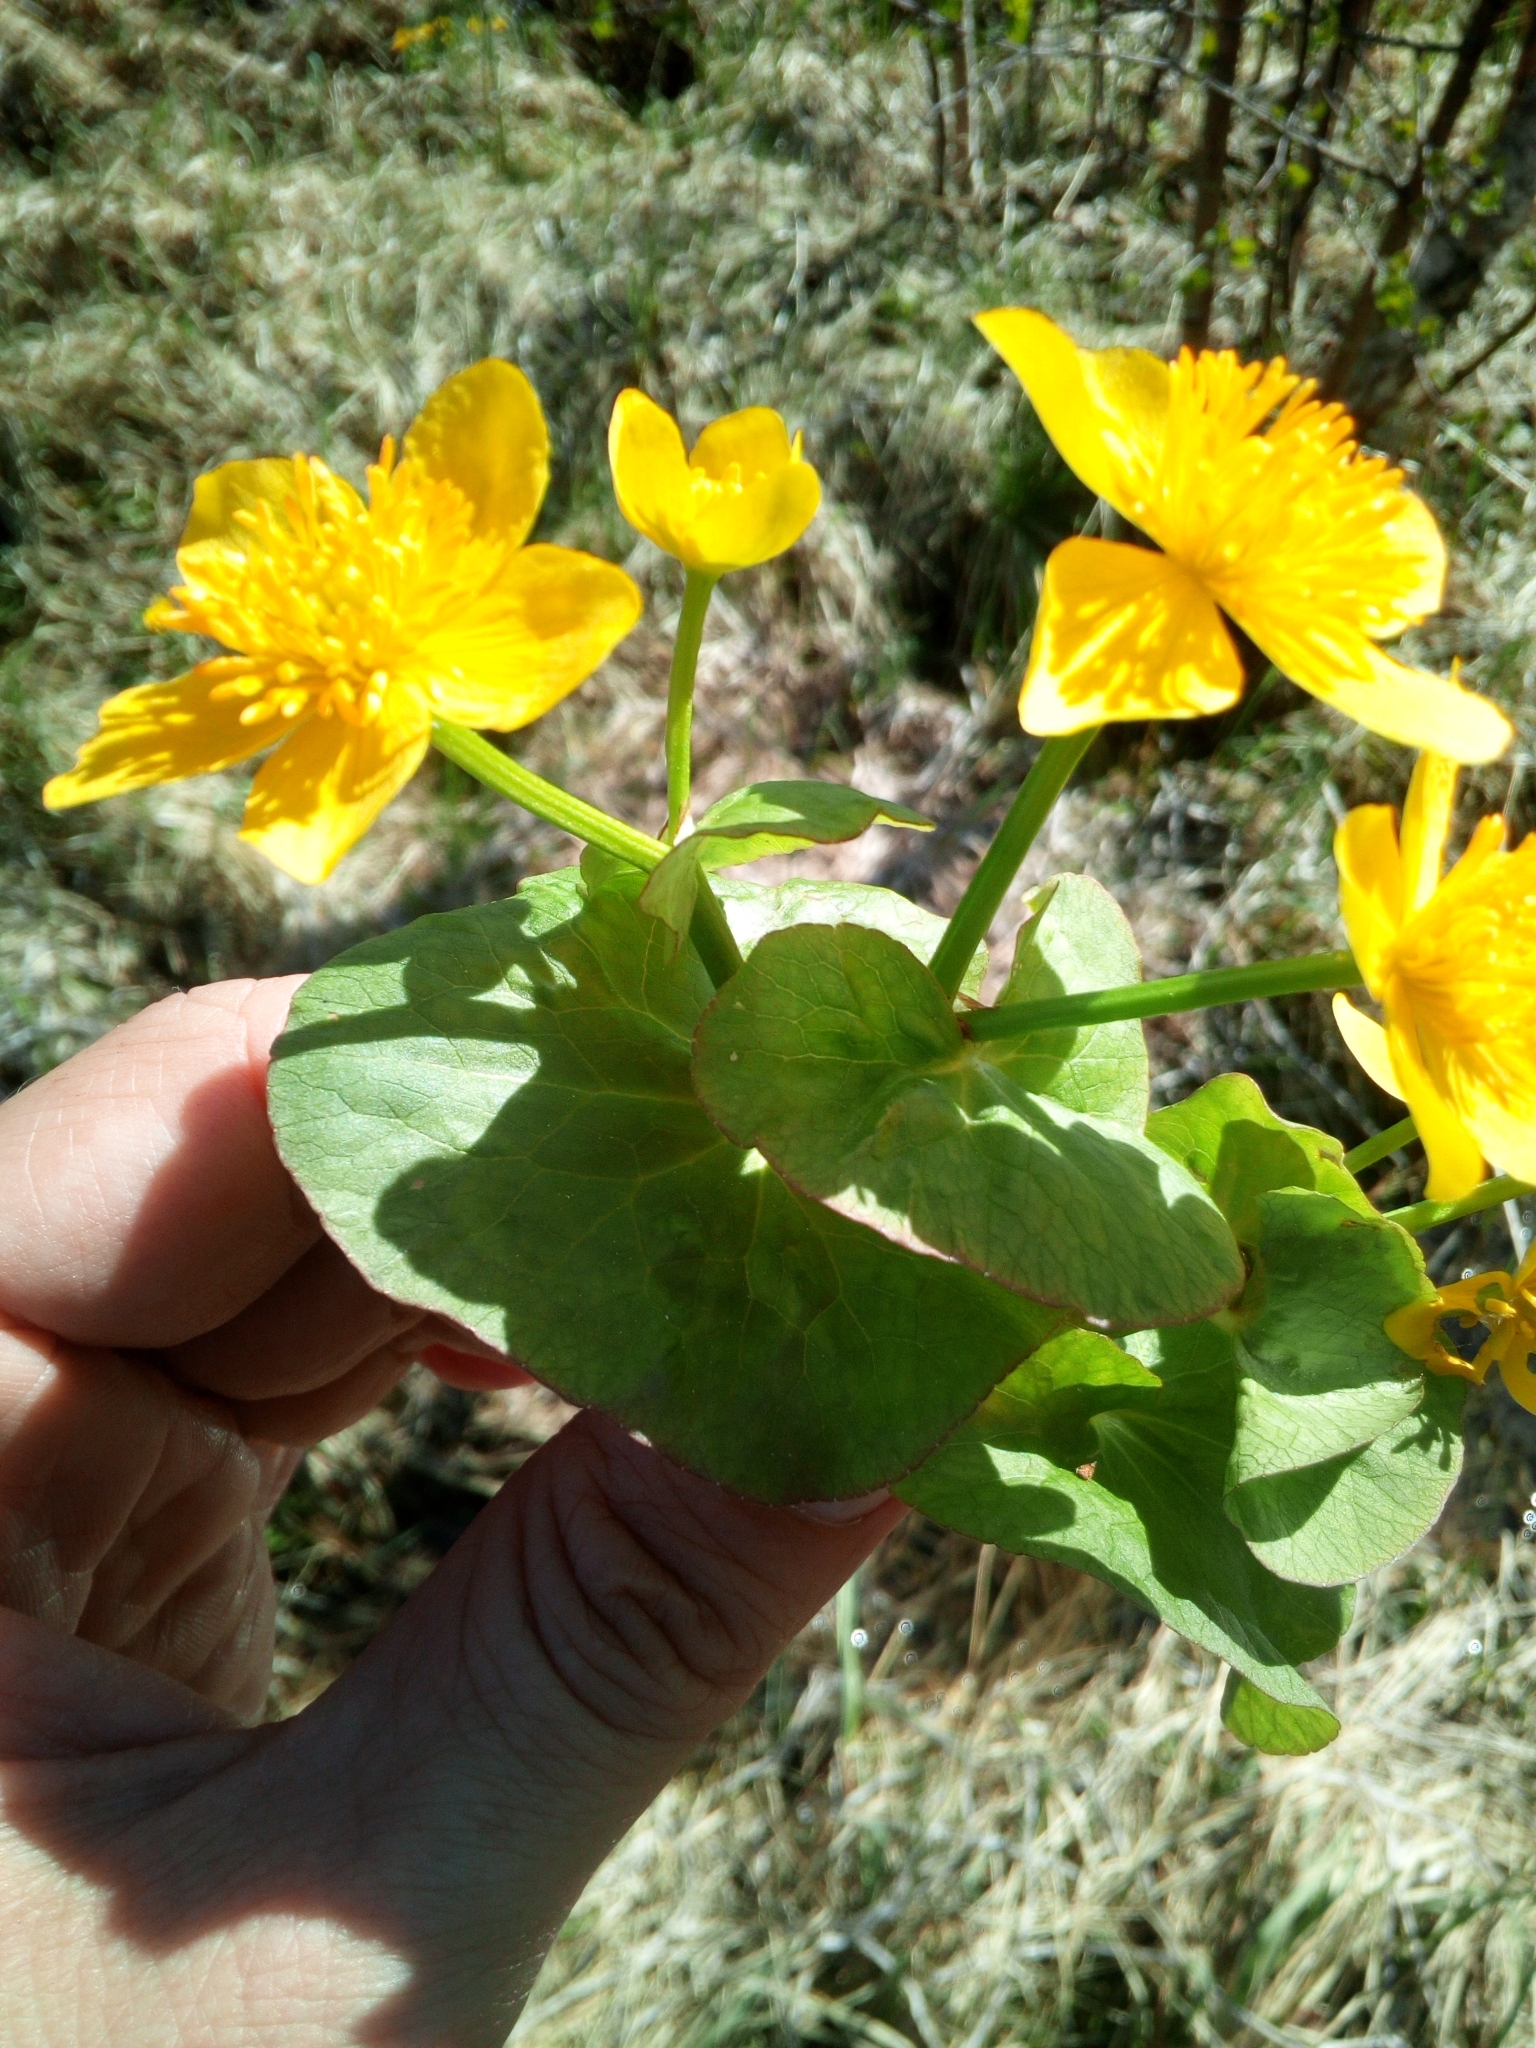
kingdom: Plantae
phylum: Tracheophyta
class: Magnoliopsida
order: Ranunculales
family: Ranunculaceae
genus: Caltha
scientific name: Caltha palustris
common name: Marsh marigold
